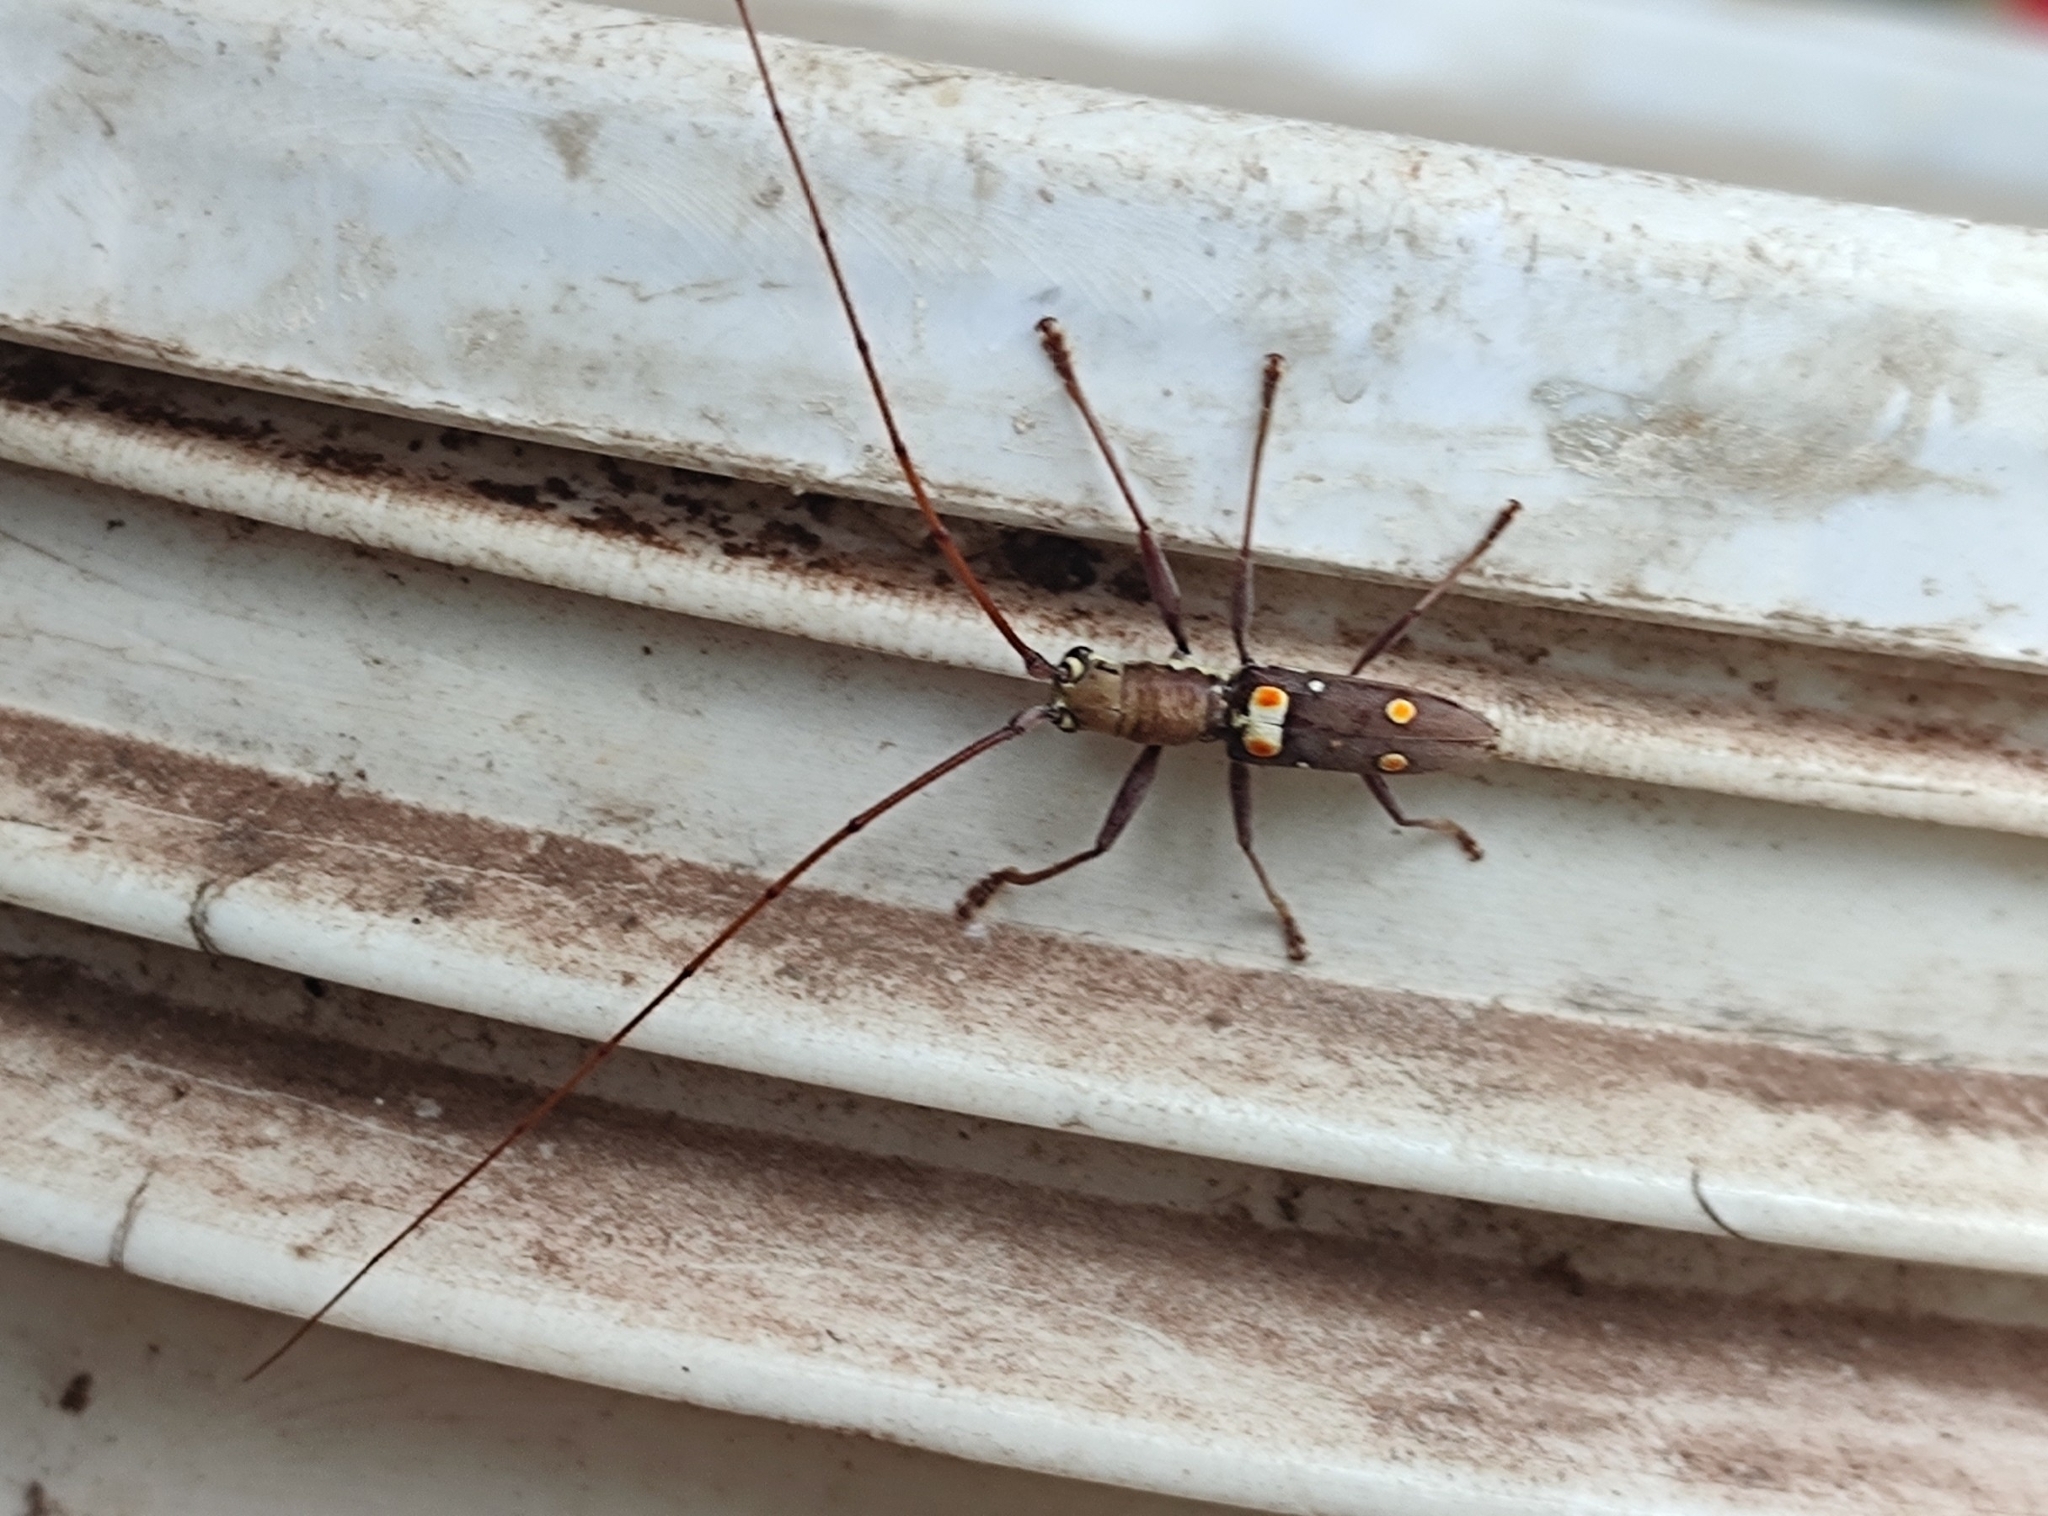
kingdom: Animalia
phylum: Arthropoda
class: Insecta
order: Coleoptera
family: Cerambycidae
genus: Olenecamptus
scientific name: Olenecamptus bilobus
